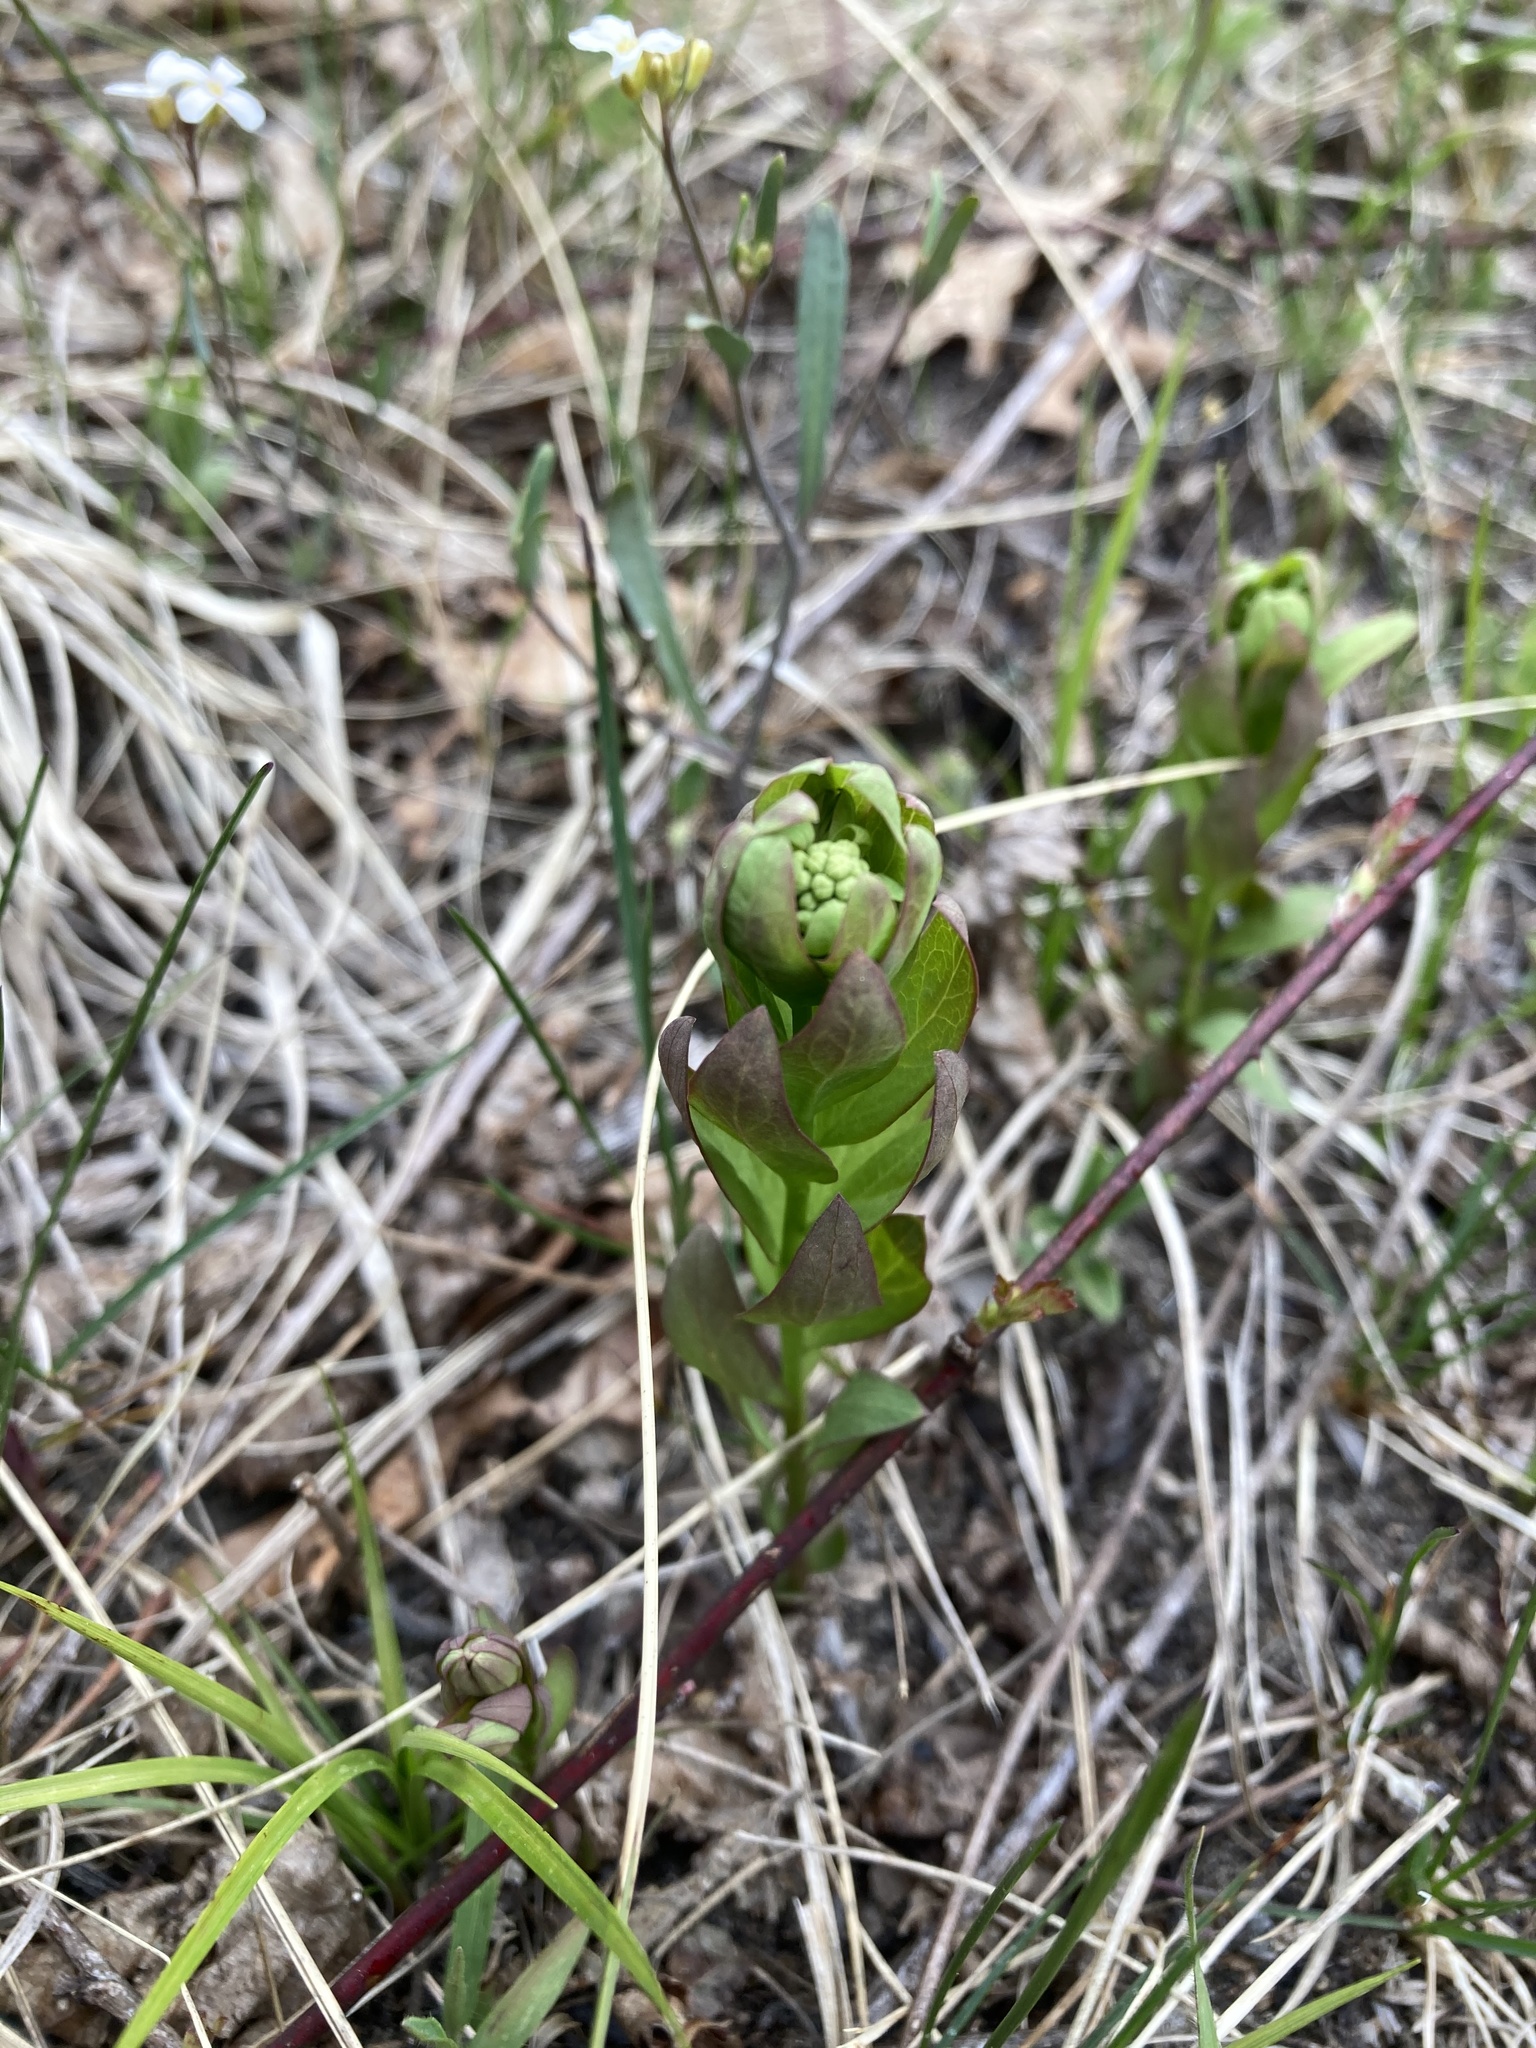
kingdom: Plantae
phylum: Tracheophyta
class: Magnoliopsida
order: Santalales
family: Comandraceae
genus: Comandra
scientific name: Comandra umbellata
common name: Bastard toadflax
